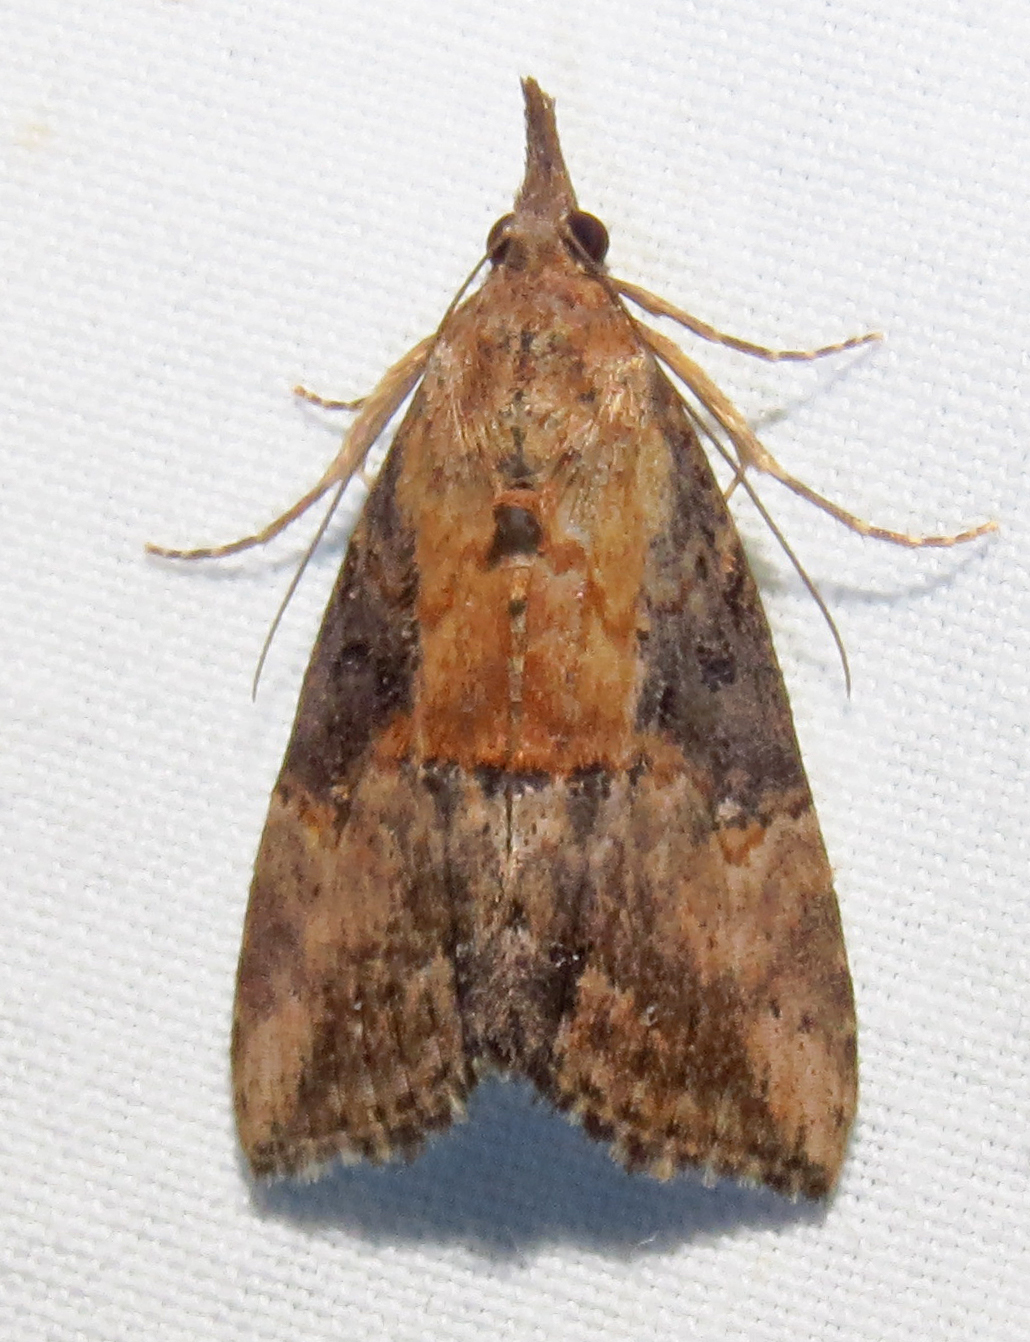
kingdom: Animalia
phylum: Arthropoda
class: Insecta
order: Lepidoptera
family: Erebidae
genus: Hypena
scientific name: Hypena scabra
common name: Green cloverworm
